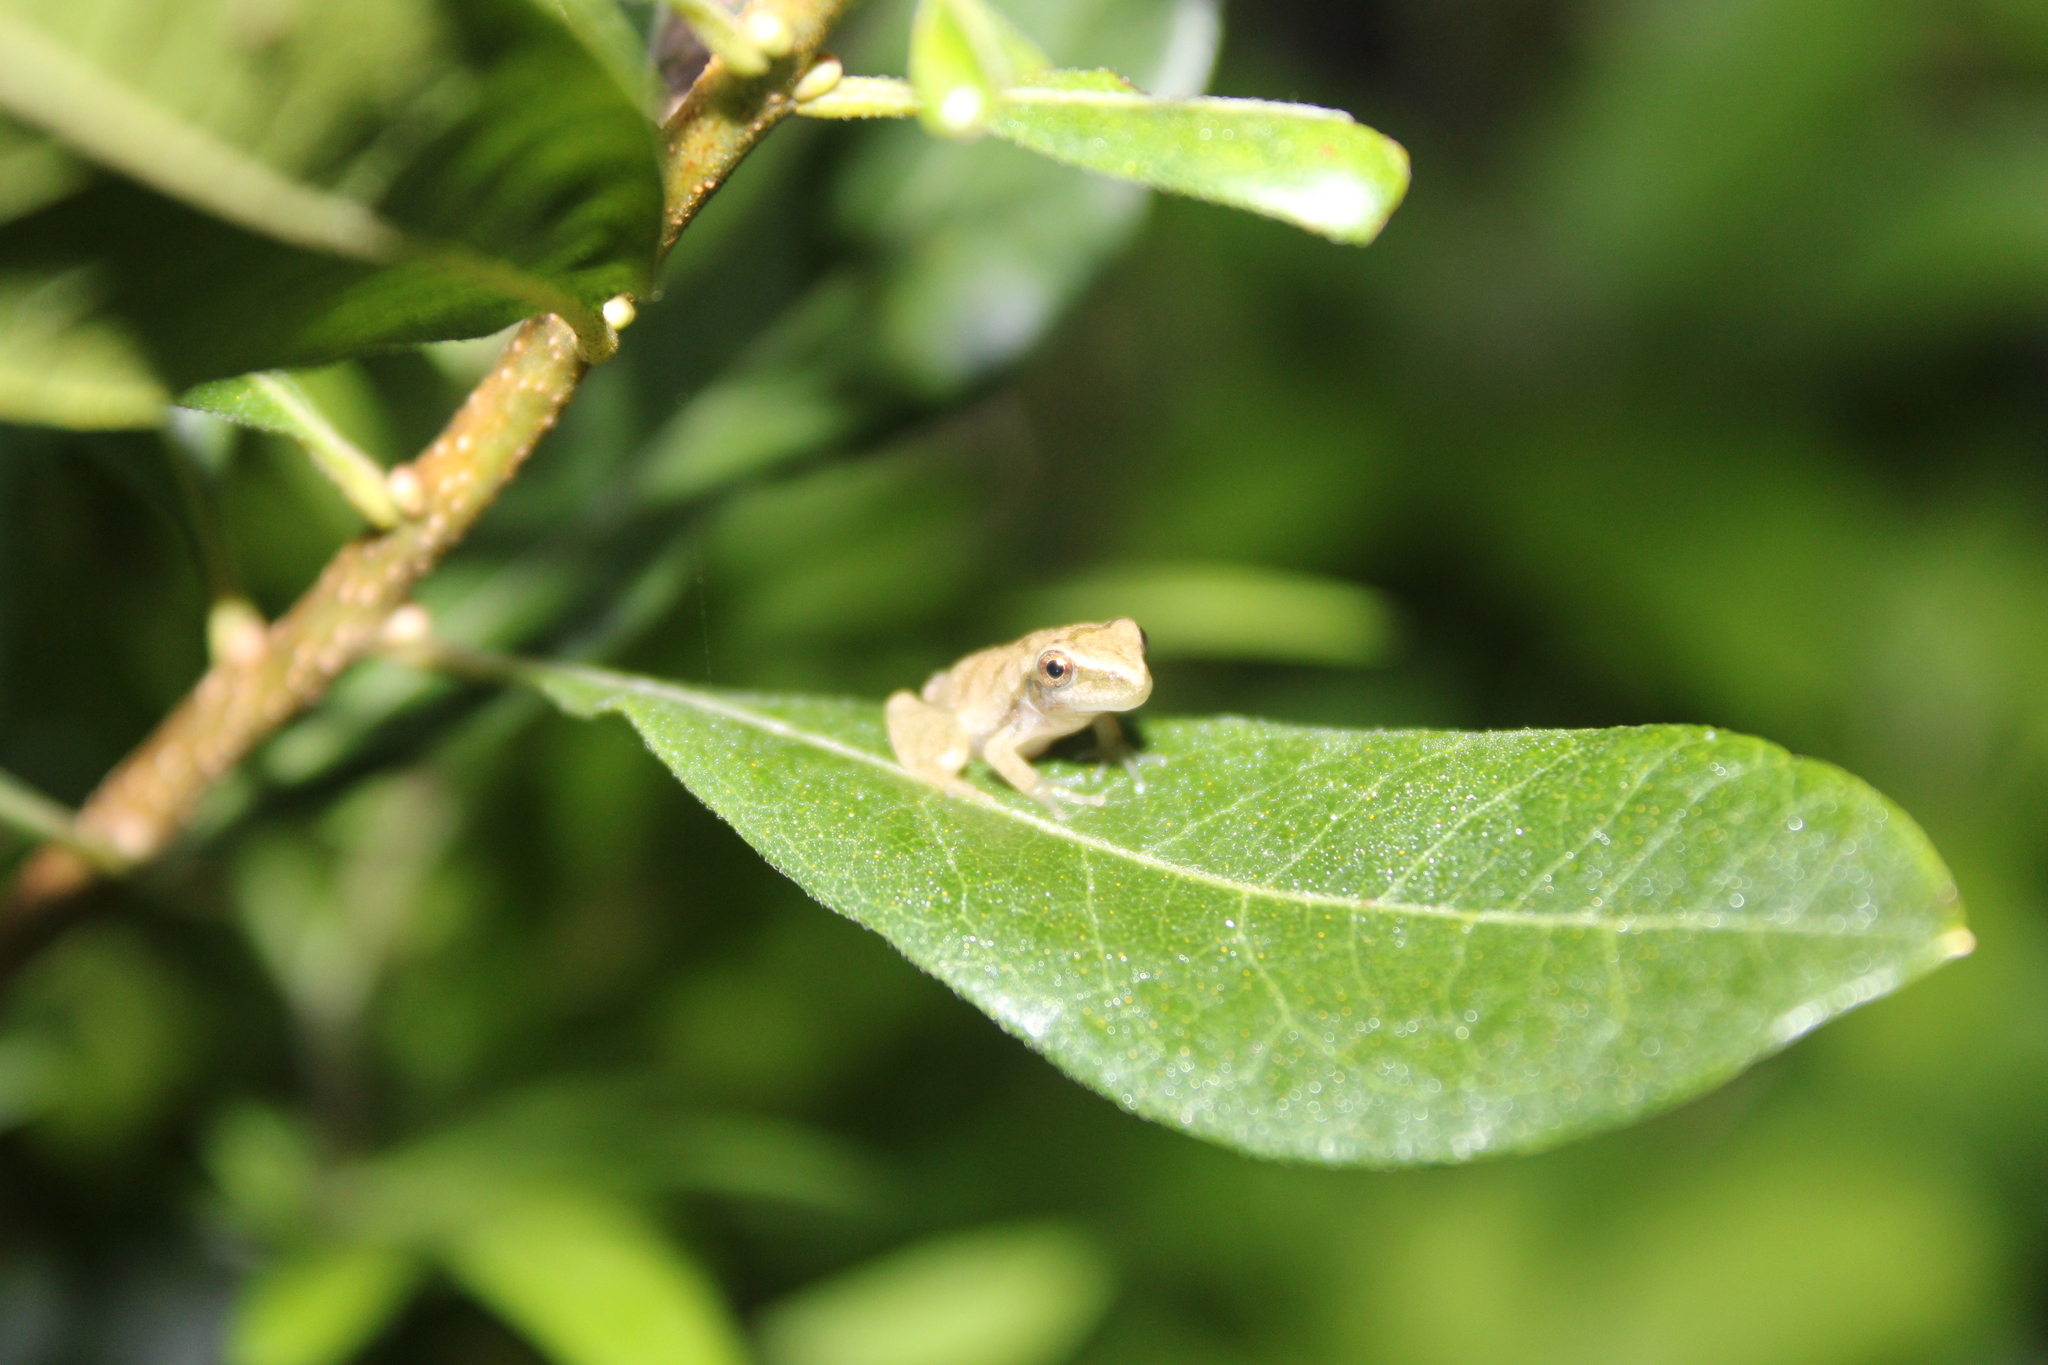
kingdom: Animalia
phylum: Chordata
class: Amphibia
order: Anura
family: Hylidae
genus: Pseudacris
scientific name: Pseudacris crucifer
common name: Spring peeper
